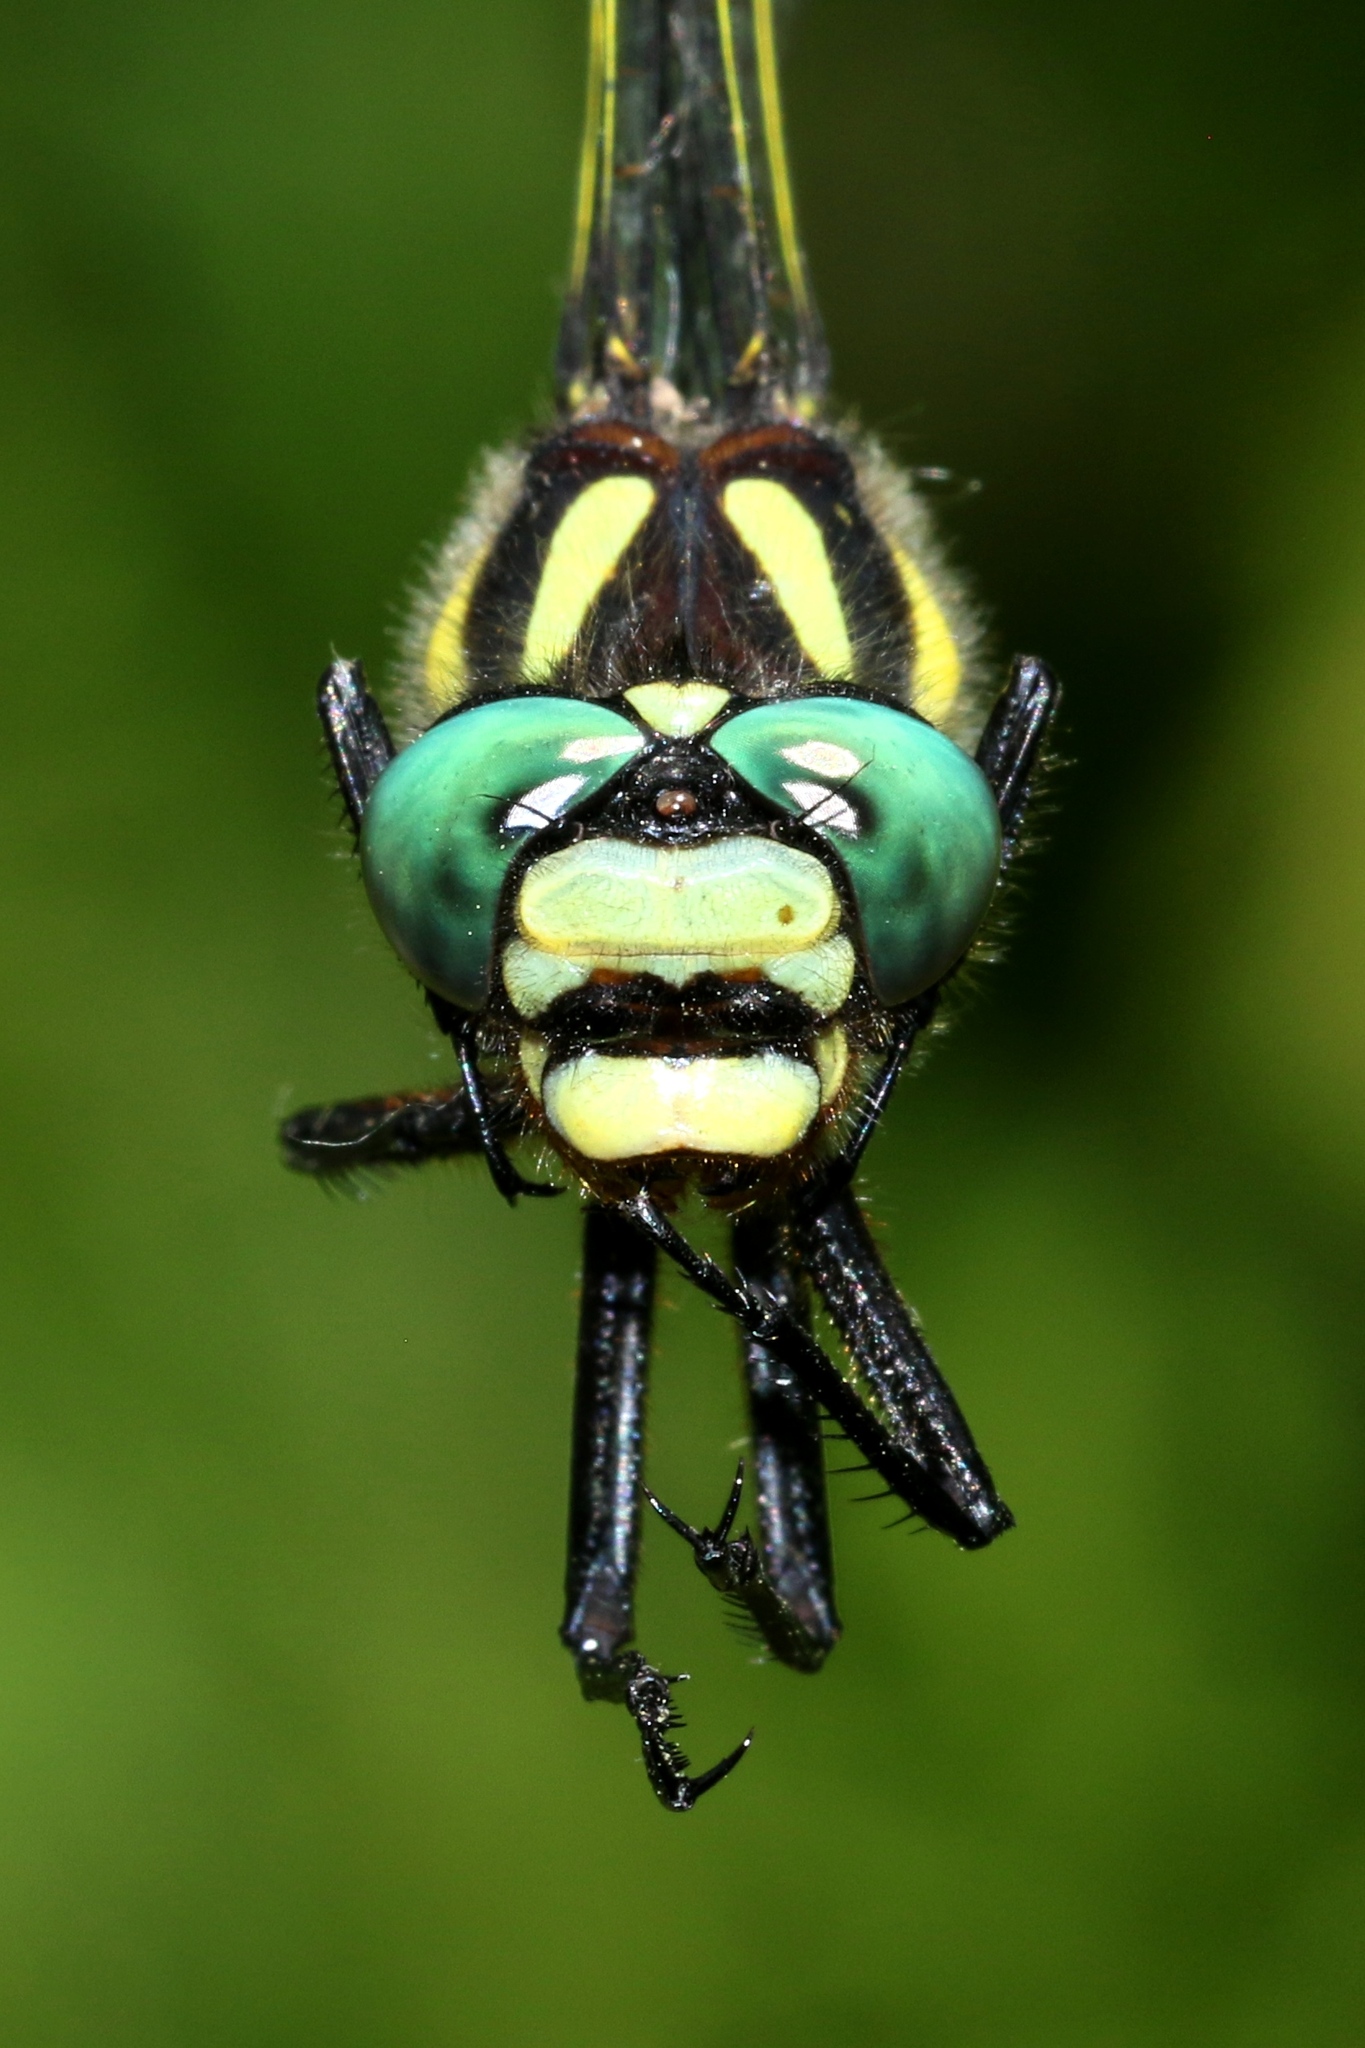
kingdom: Animalia
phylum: Arthropoda
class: Insecta
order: Odonata
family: Cordulegastridae
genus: Cordulegaster
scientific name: Cordulegaster diastatops
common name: Delta-spotted spiketail
